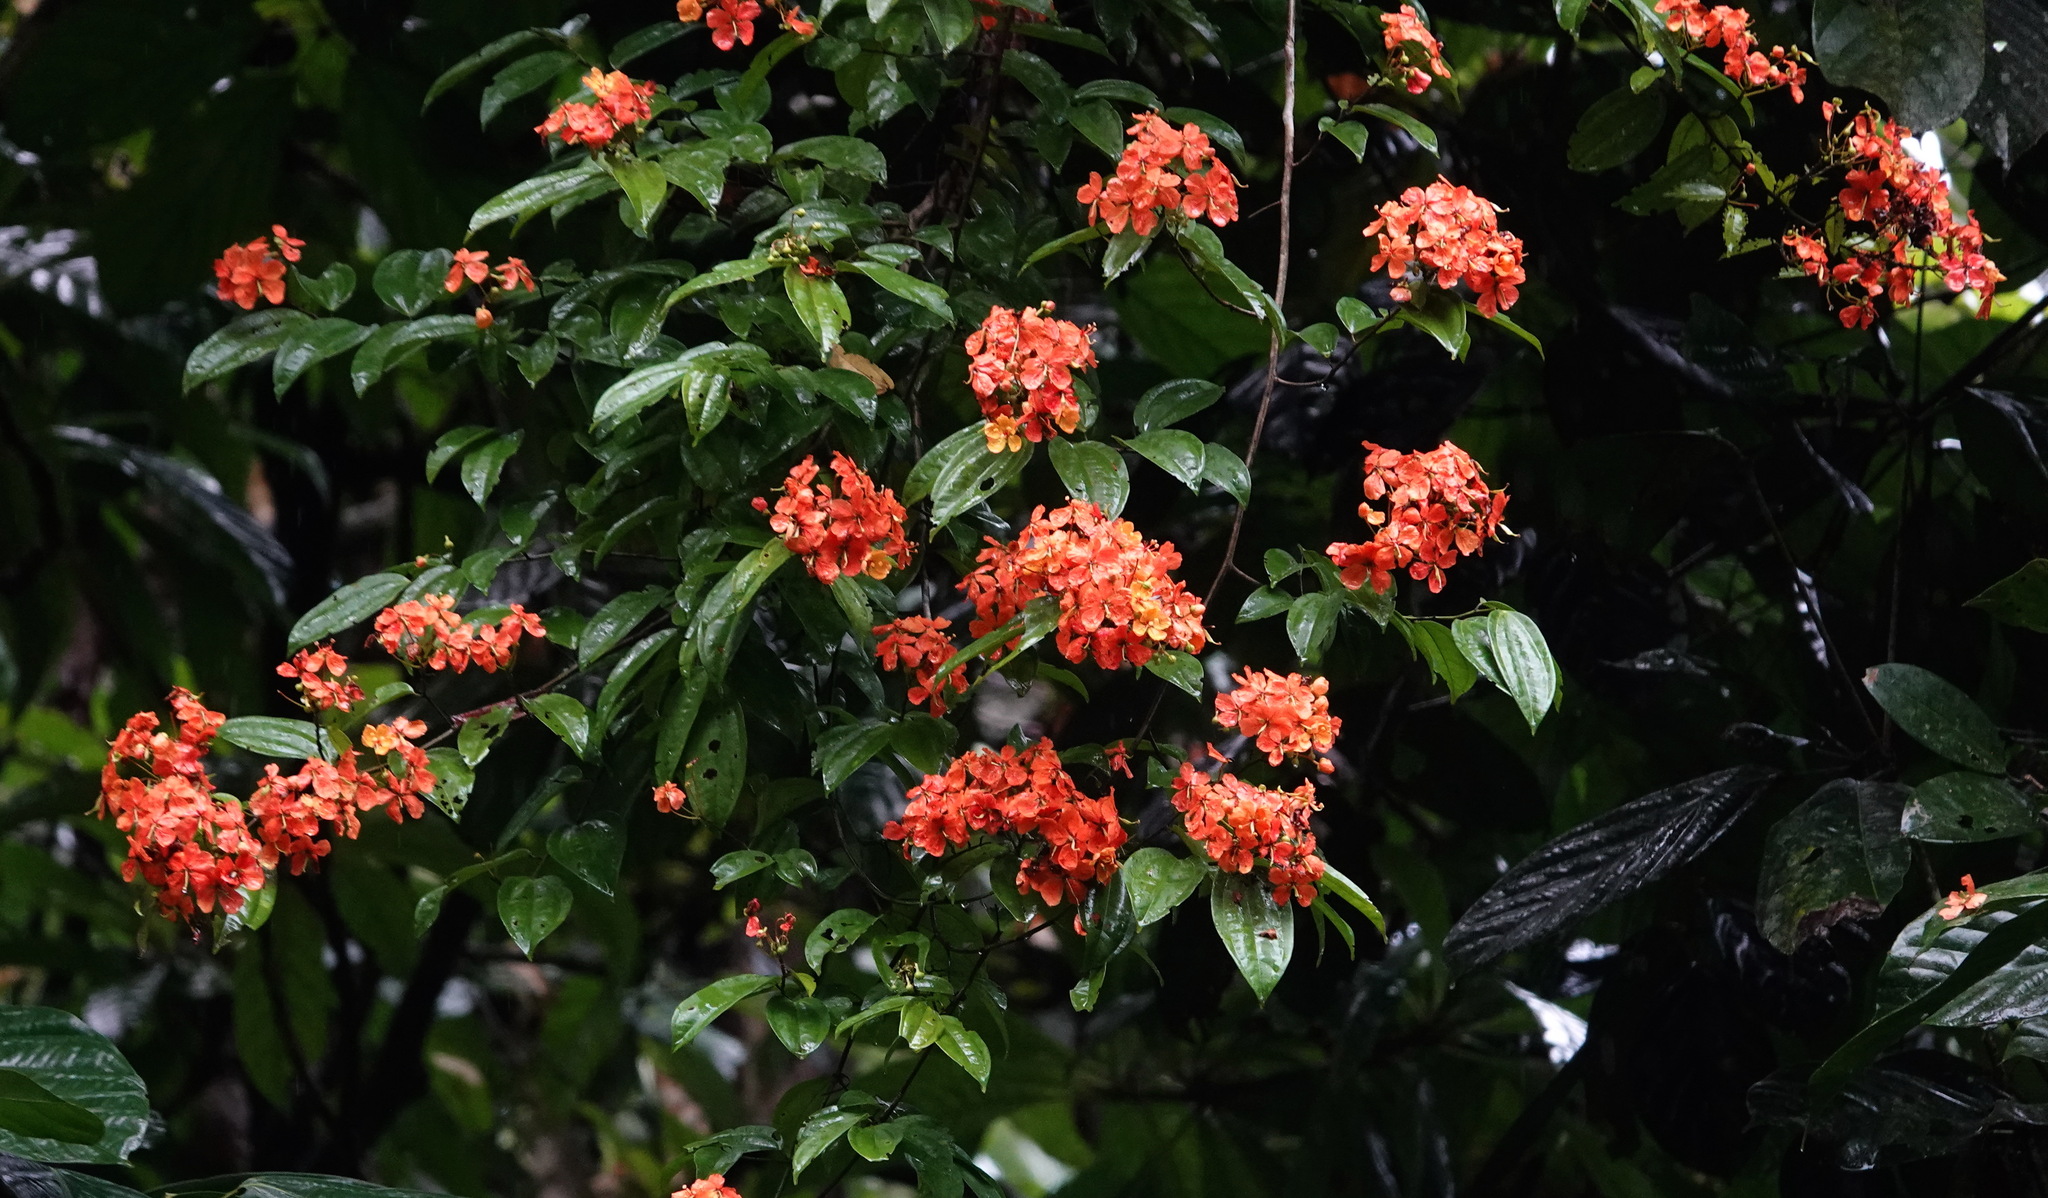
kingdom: Plantae
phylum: Tracheophyta
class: Magnoliopsida
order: Fabales
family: Fabaceae
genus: Phanera
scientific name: Phanera kockiana
